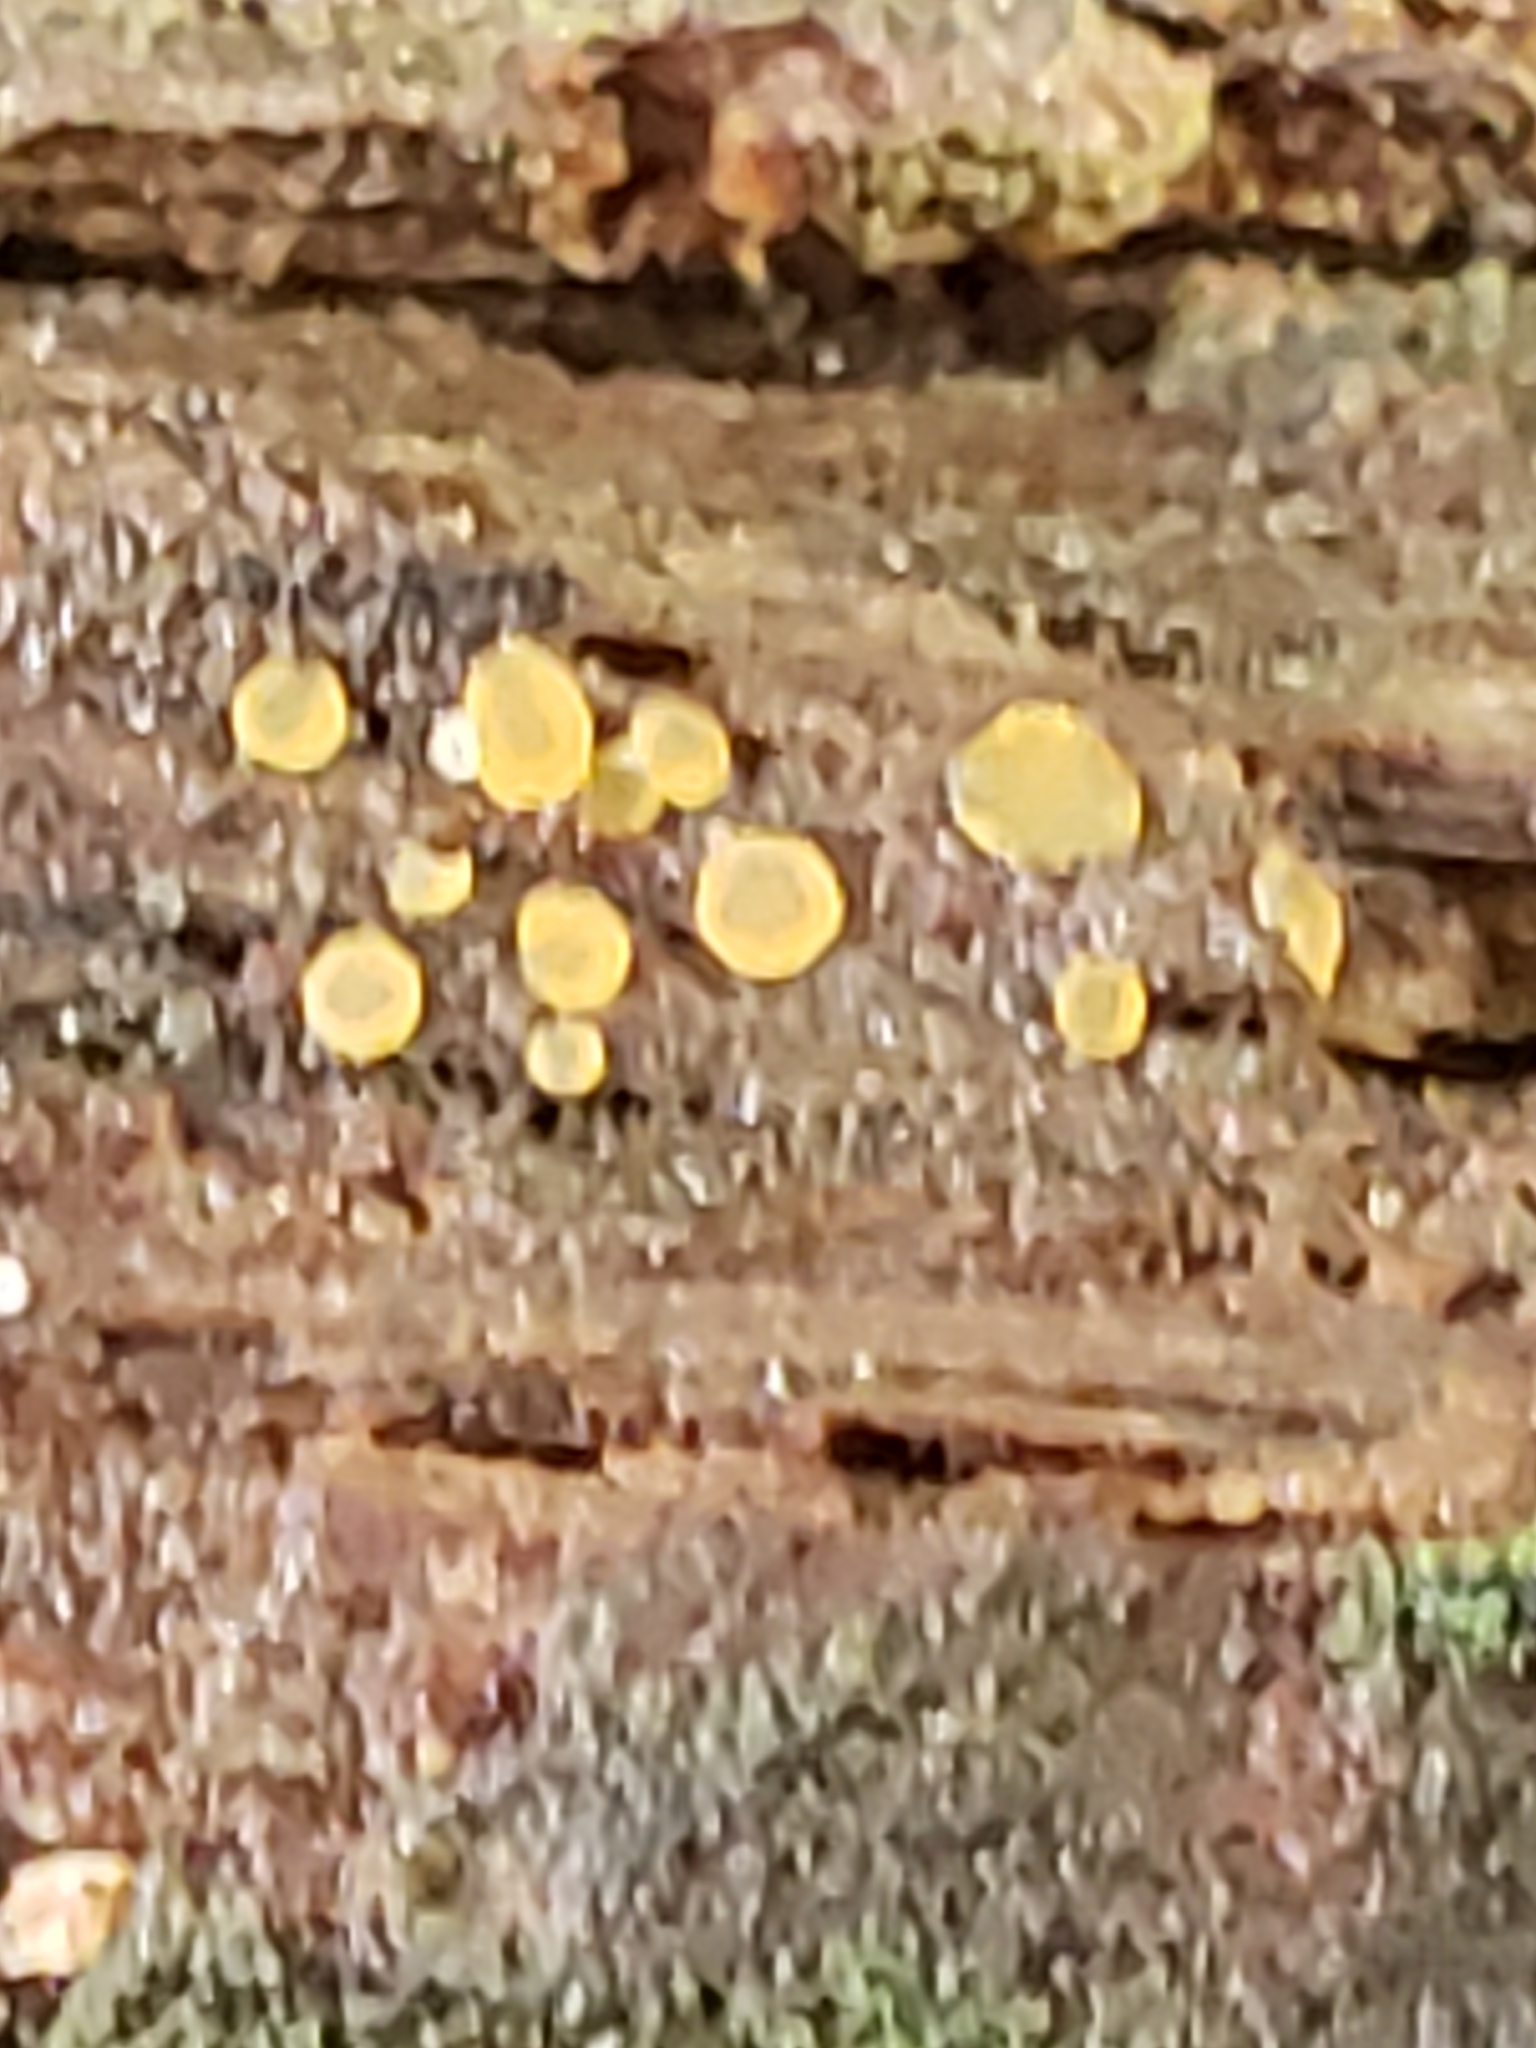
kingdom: Fungi
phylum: Ascomycota
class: Orbiliomycetes
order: Orbiliales
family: Orbiliaceae
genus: Orbilia
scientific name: Orbilia
